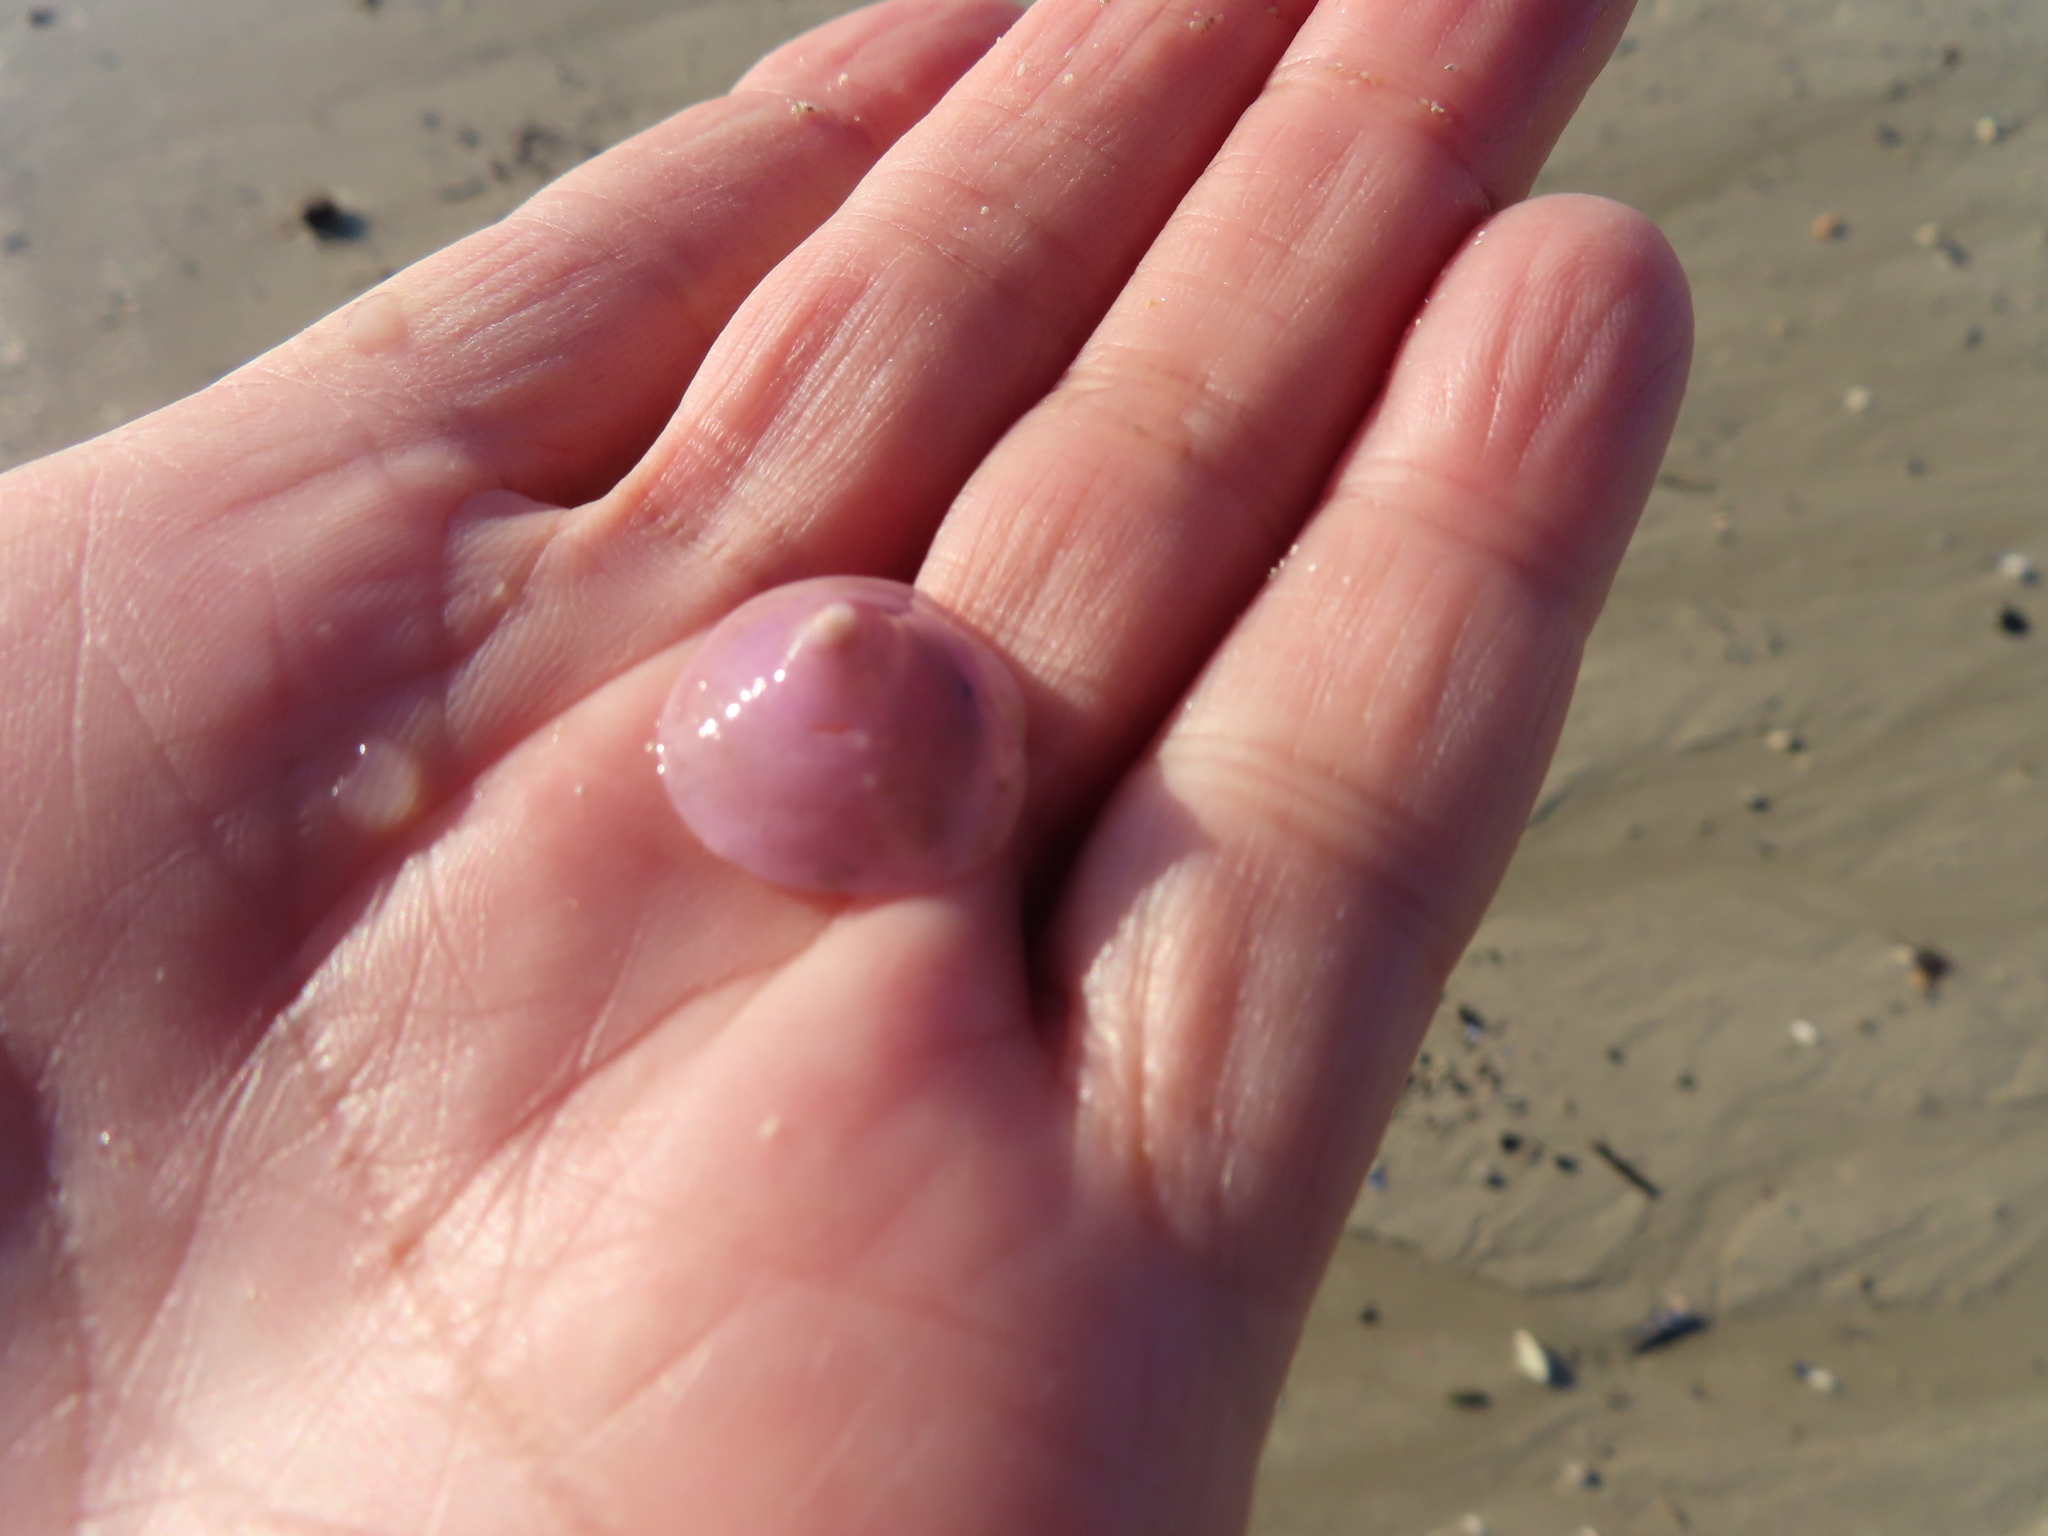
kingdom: Animalia
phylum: Mollusca
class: Gastropoda
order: Littorinimorpha
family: Calyptraeidae
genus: Calyptraea
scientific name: Calyptraea capensis
